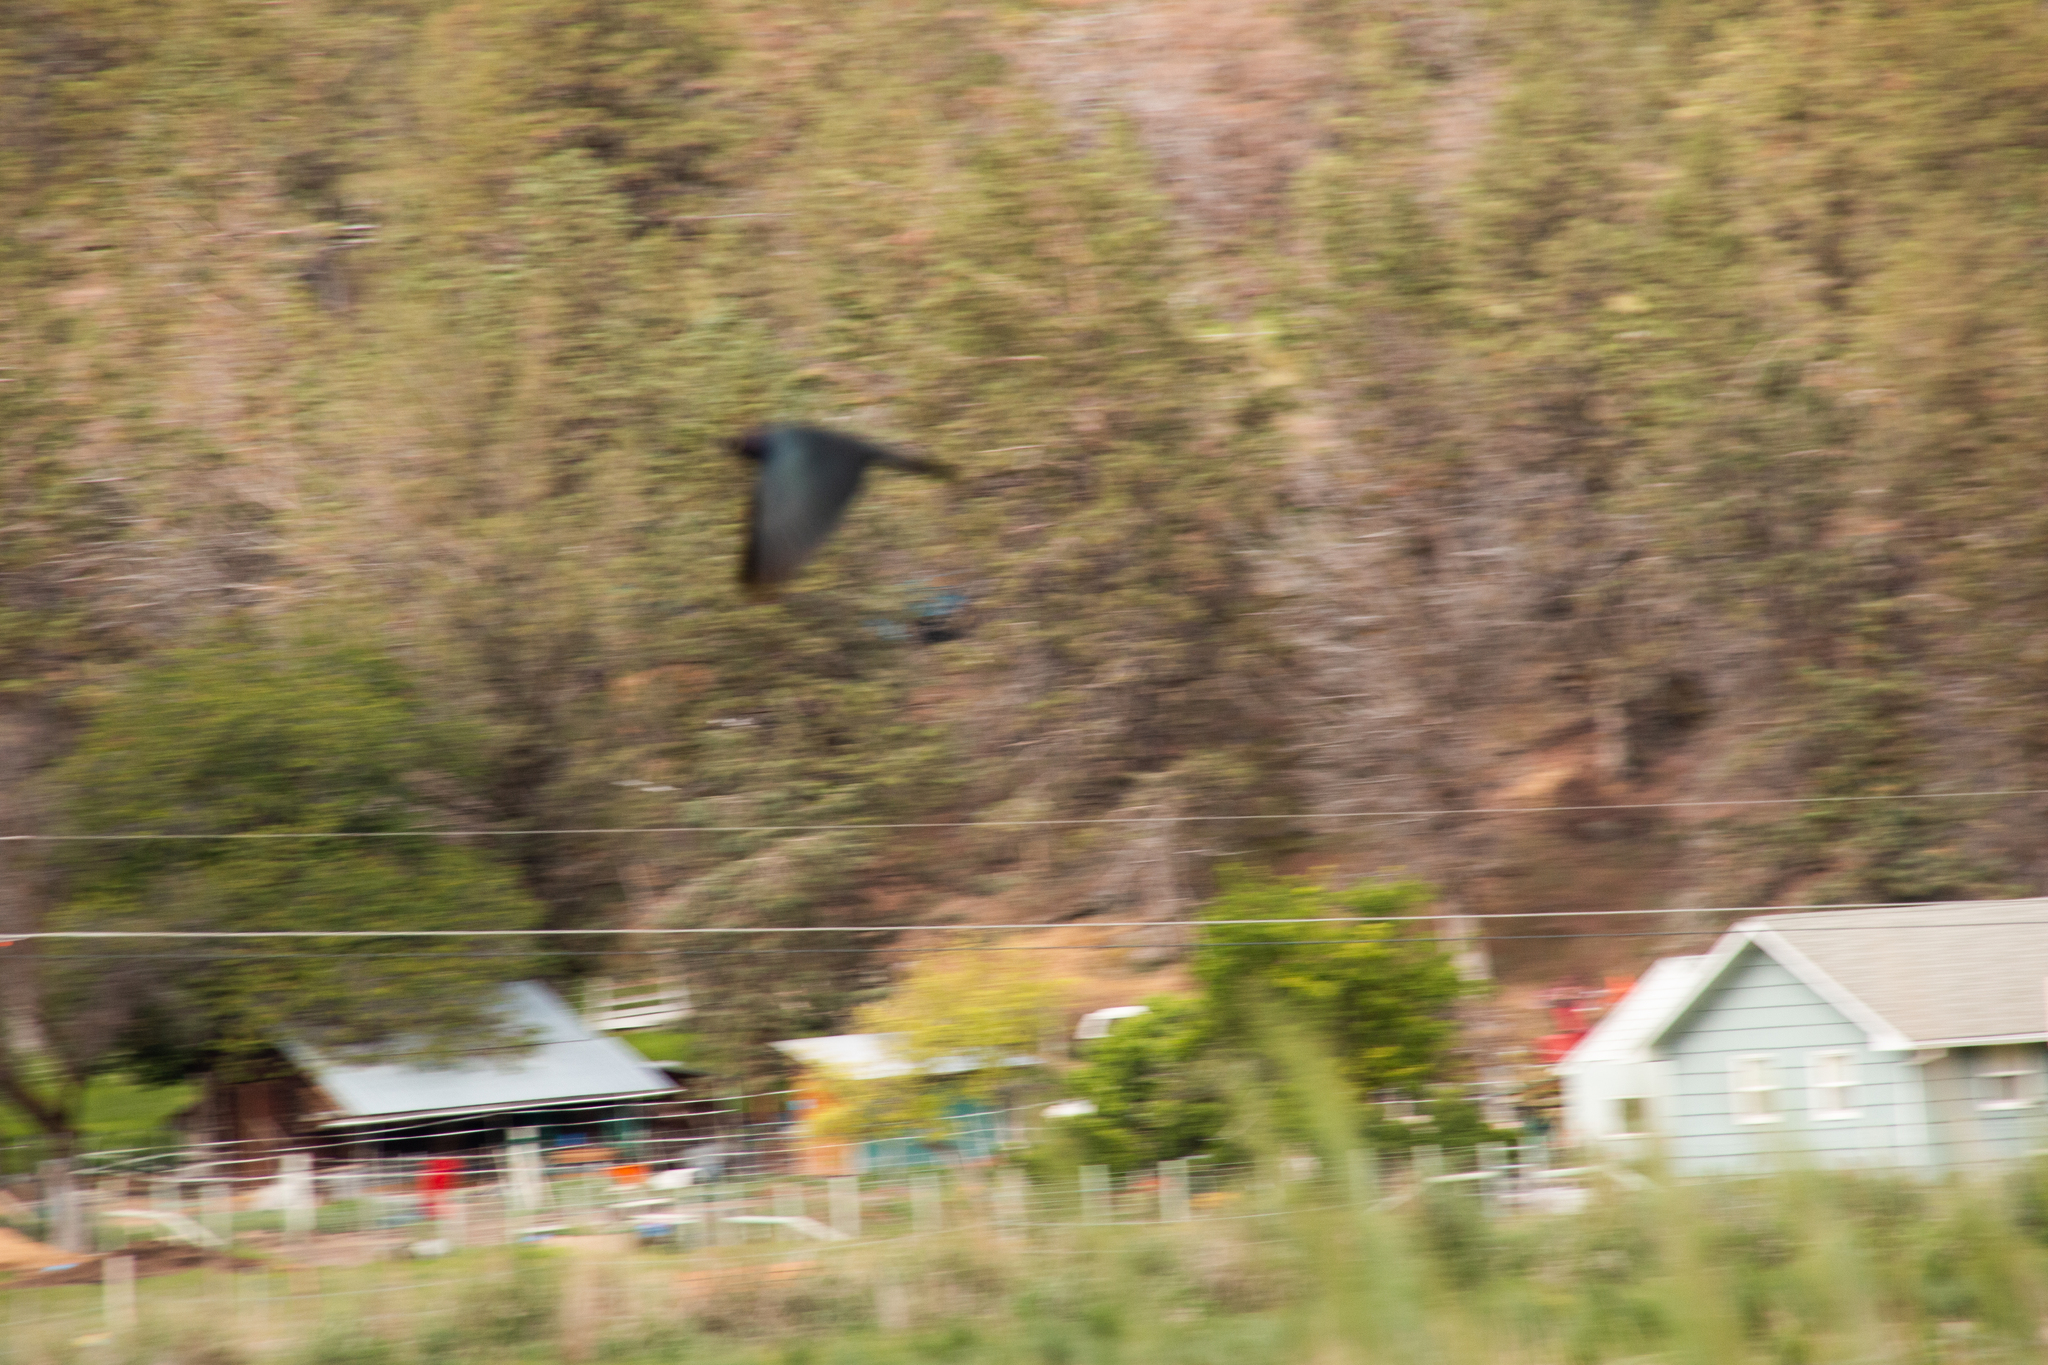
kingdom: Animalia
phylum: Chordata
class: Aves
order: Passeriformes
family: Icteridae
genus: Euphagus
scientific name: Euphagus cyanocephalus
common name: Brewer's blackbird
